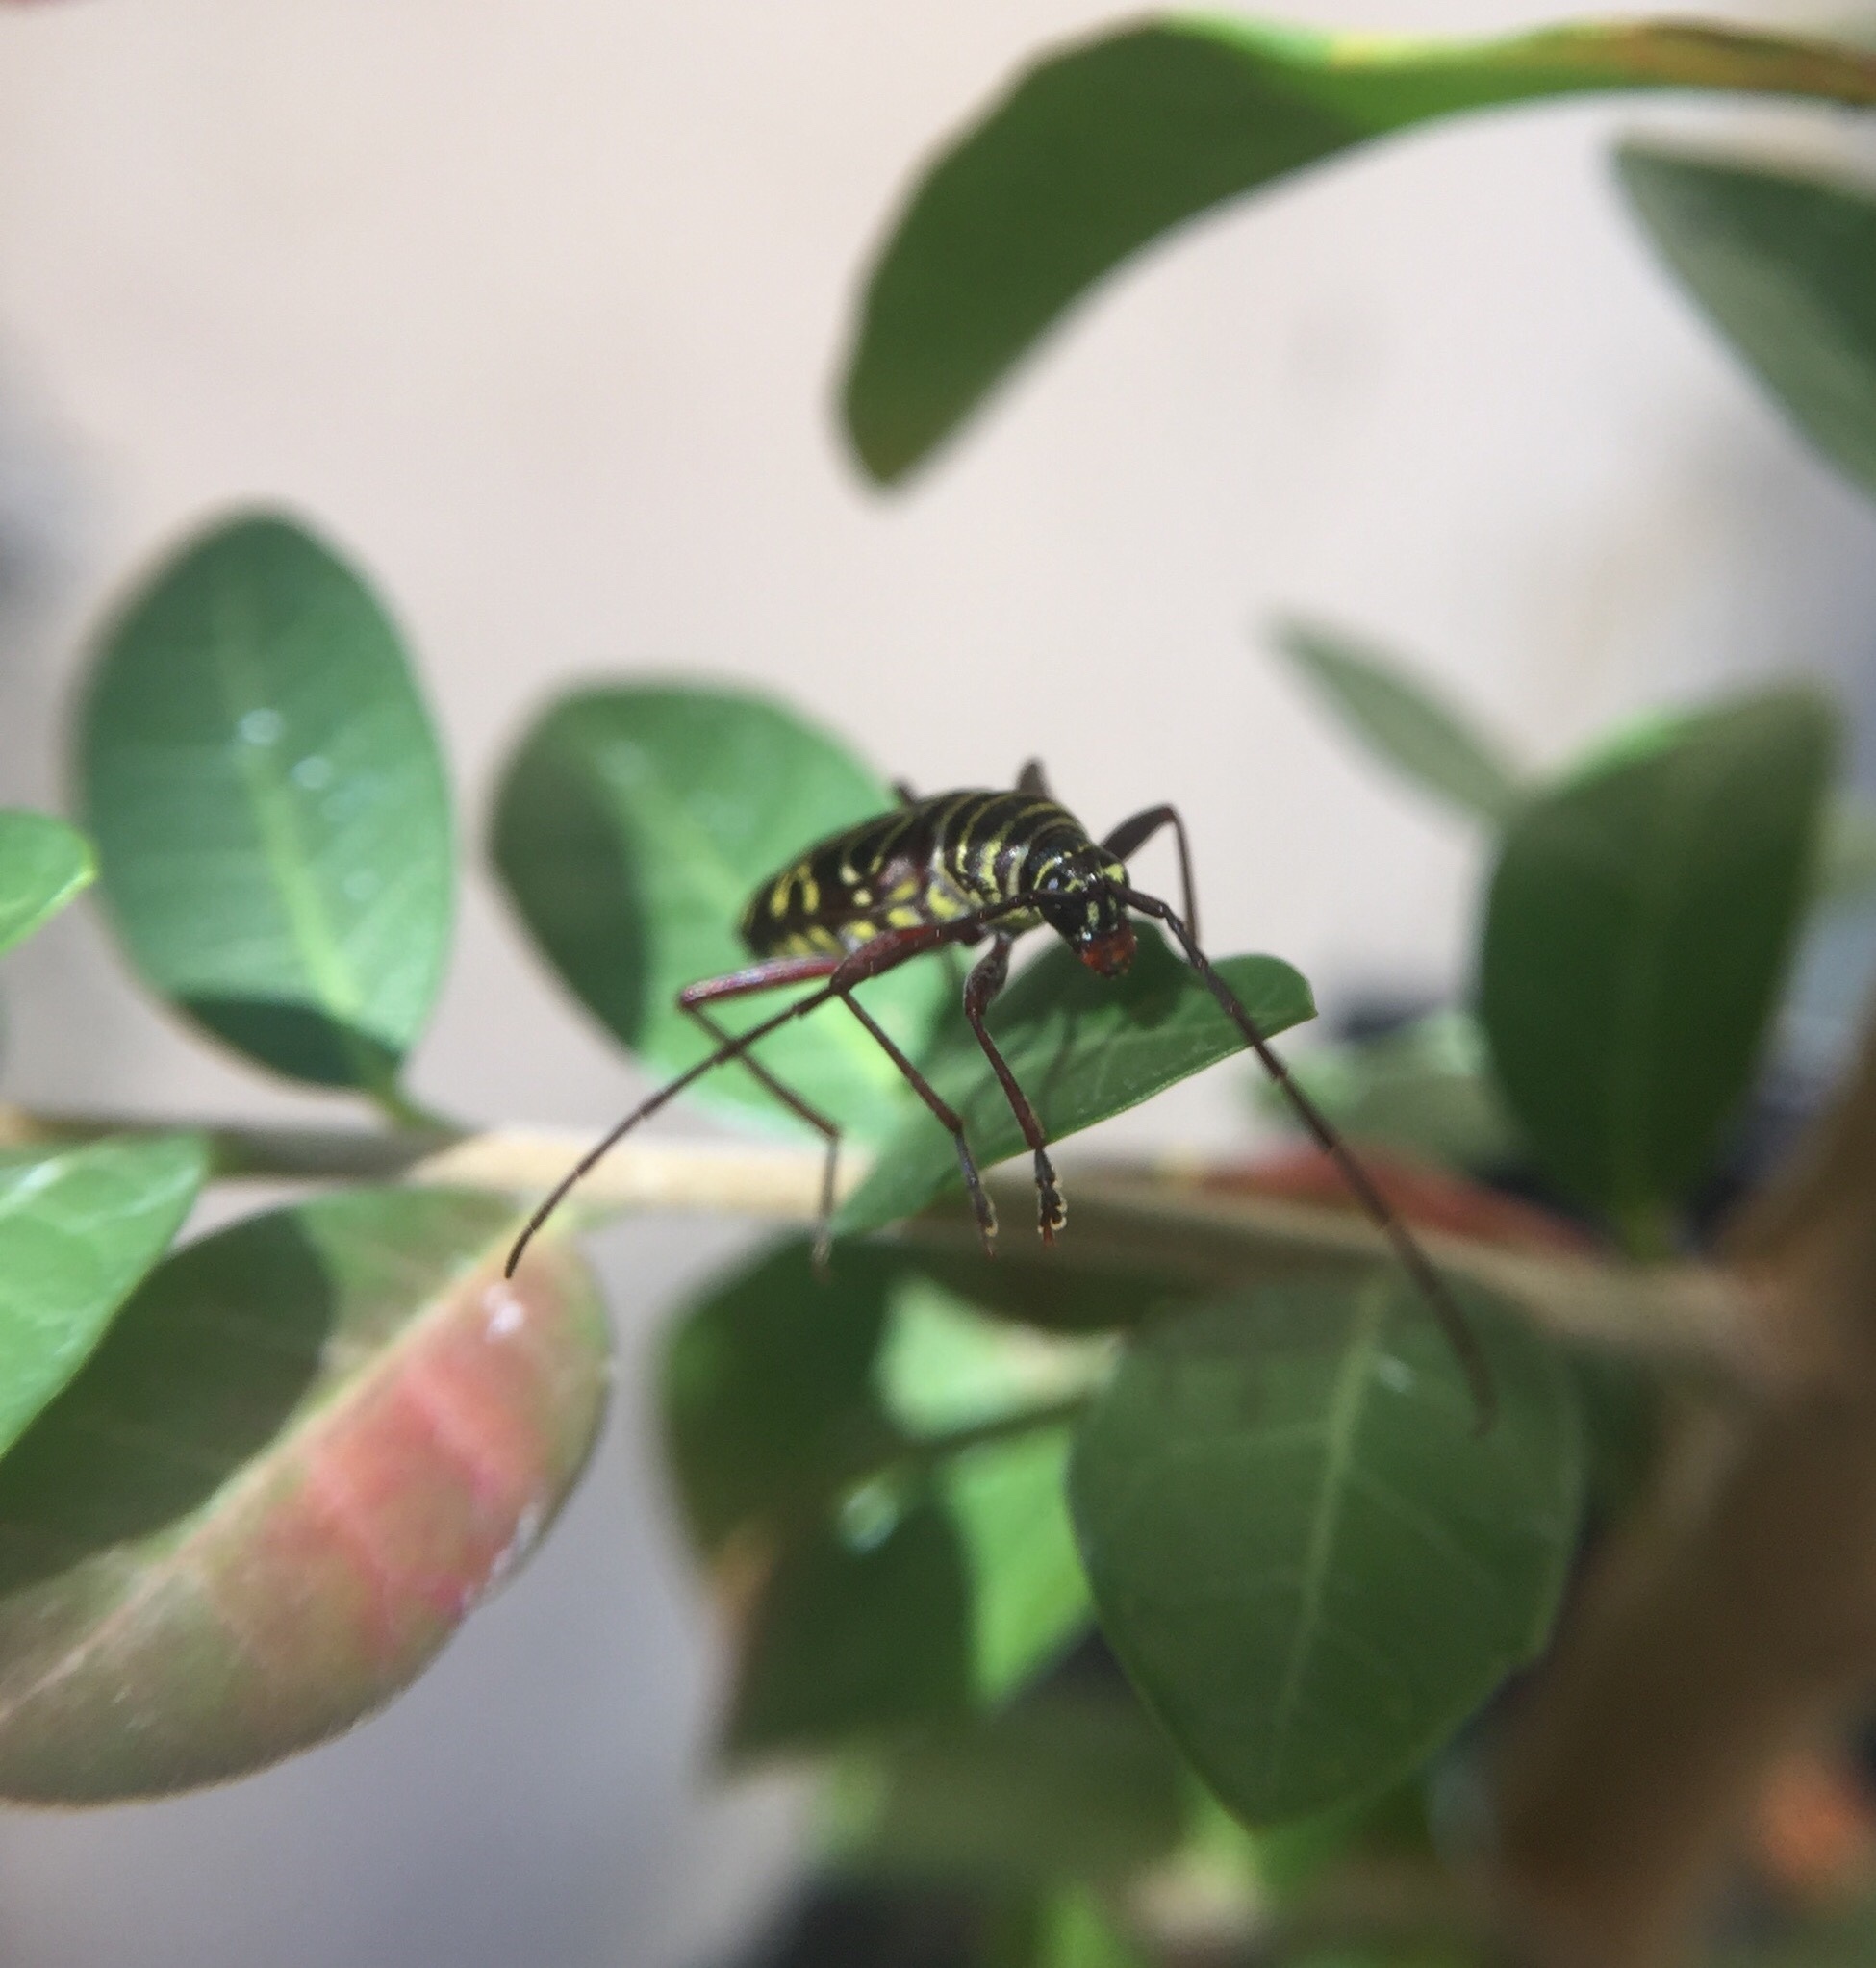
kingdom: Animalia
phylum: Arthropoda
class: Insecta
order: Coleoptera
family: Cerambycidae
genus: Megacyllene
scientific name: Megacyllene acuta
